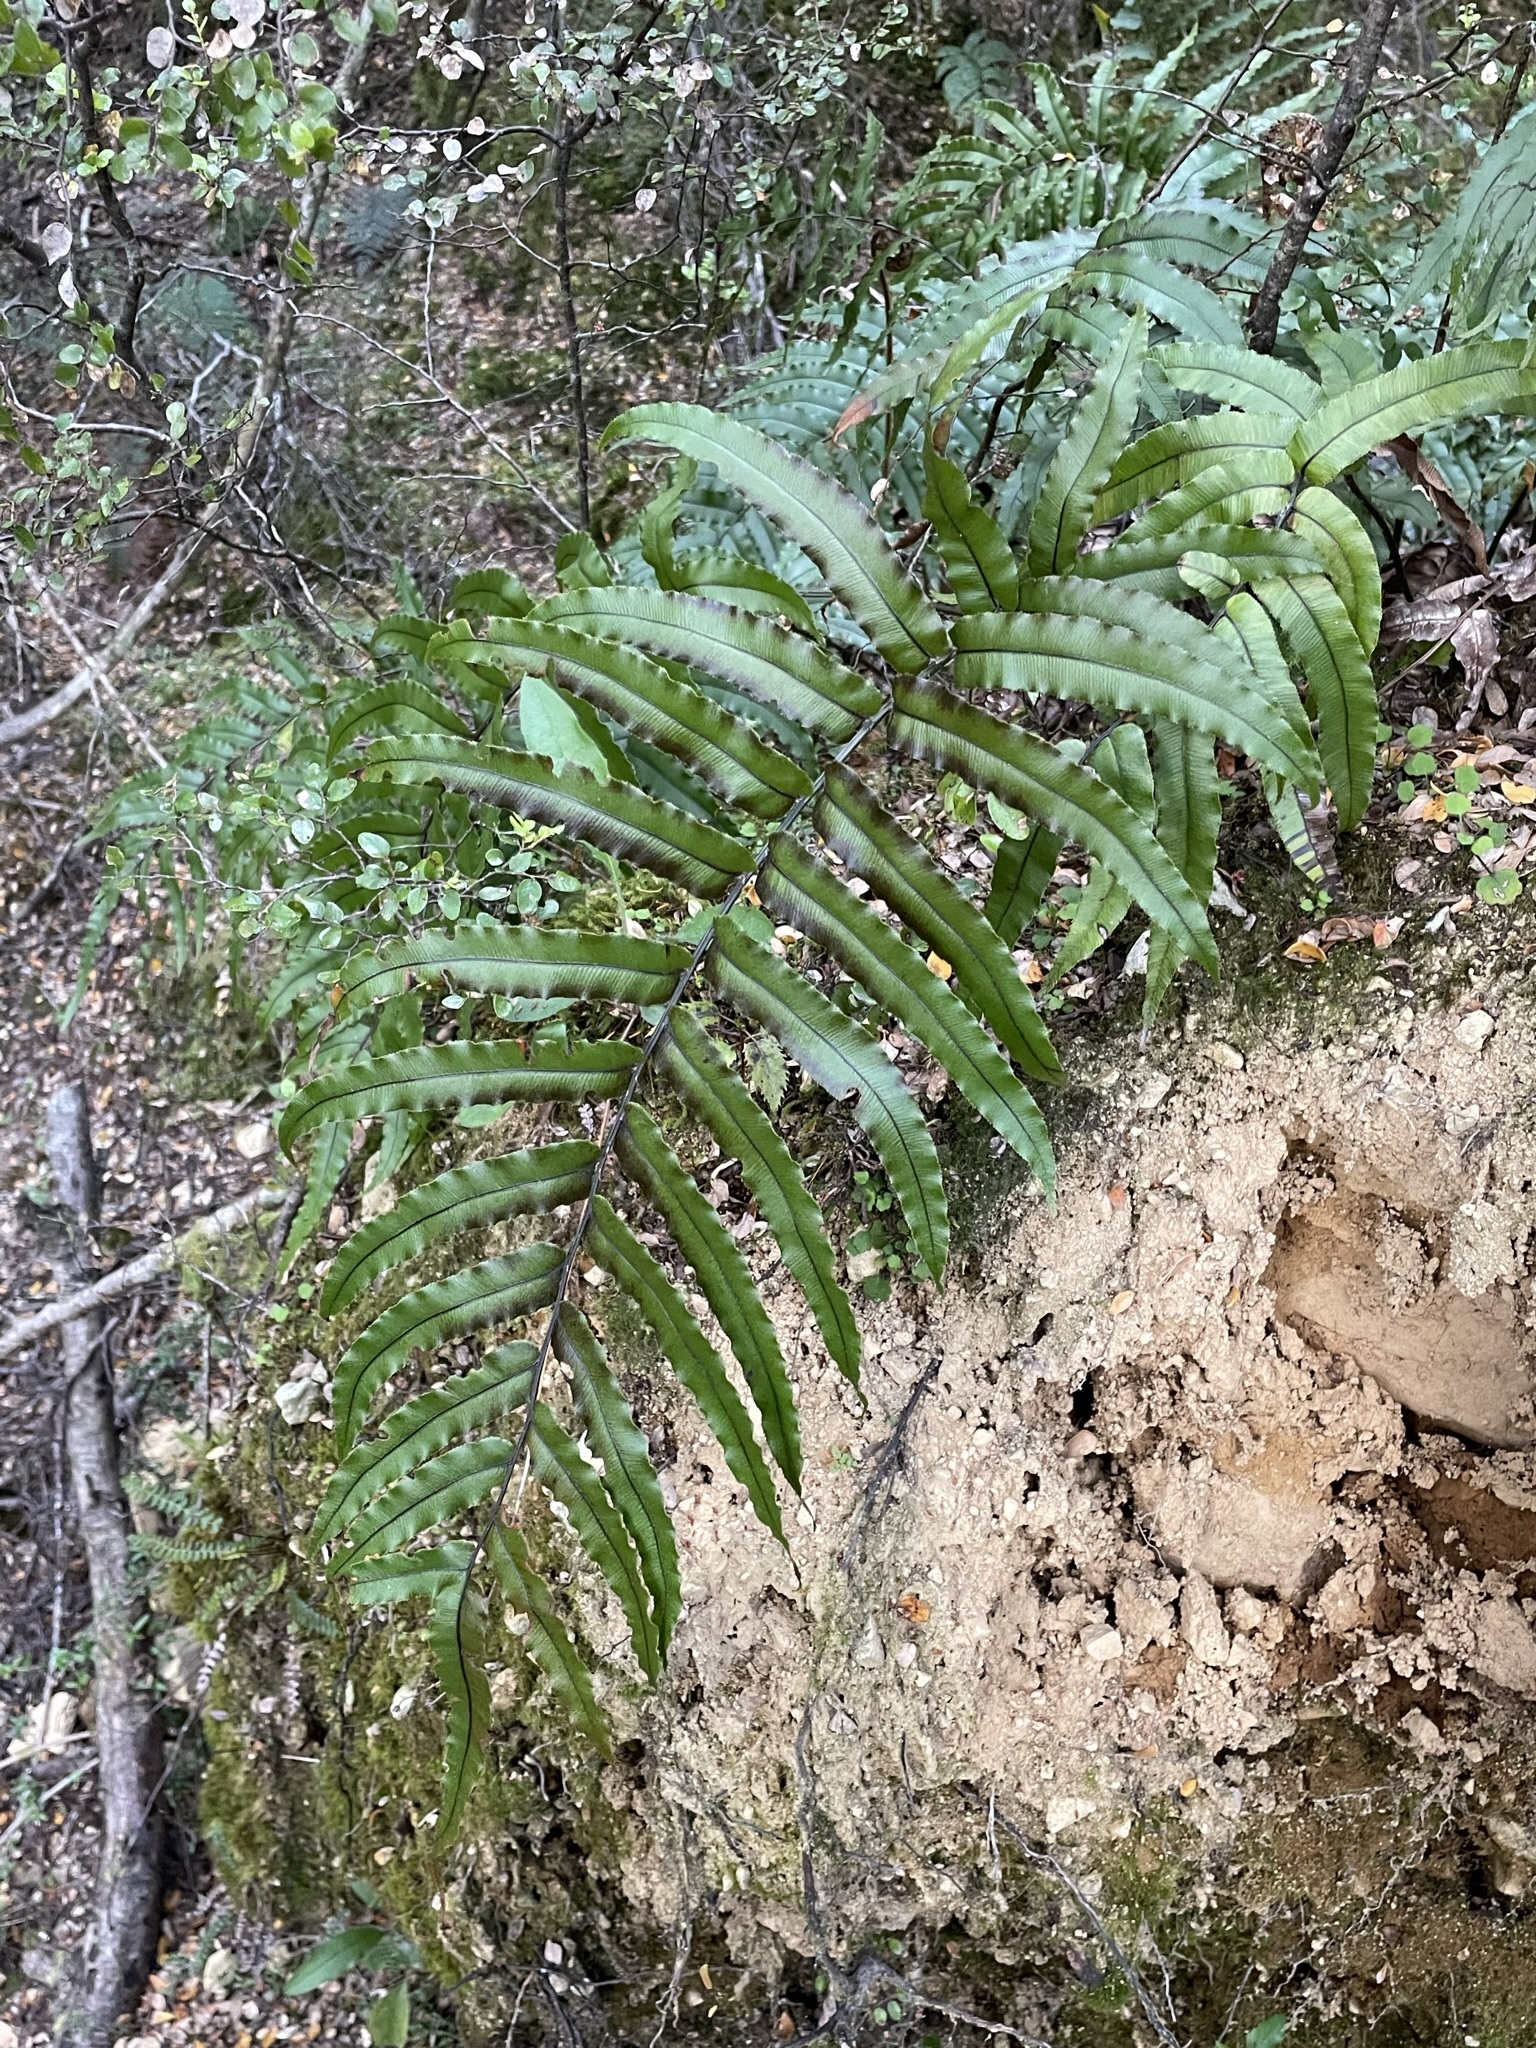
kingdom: Plantae
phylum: Tracheophyta
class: Polypodiopsida
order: Polypodiales
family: Blechnaceae
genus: Parablechnum
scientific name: Parablechnum montanum
